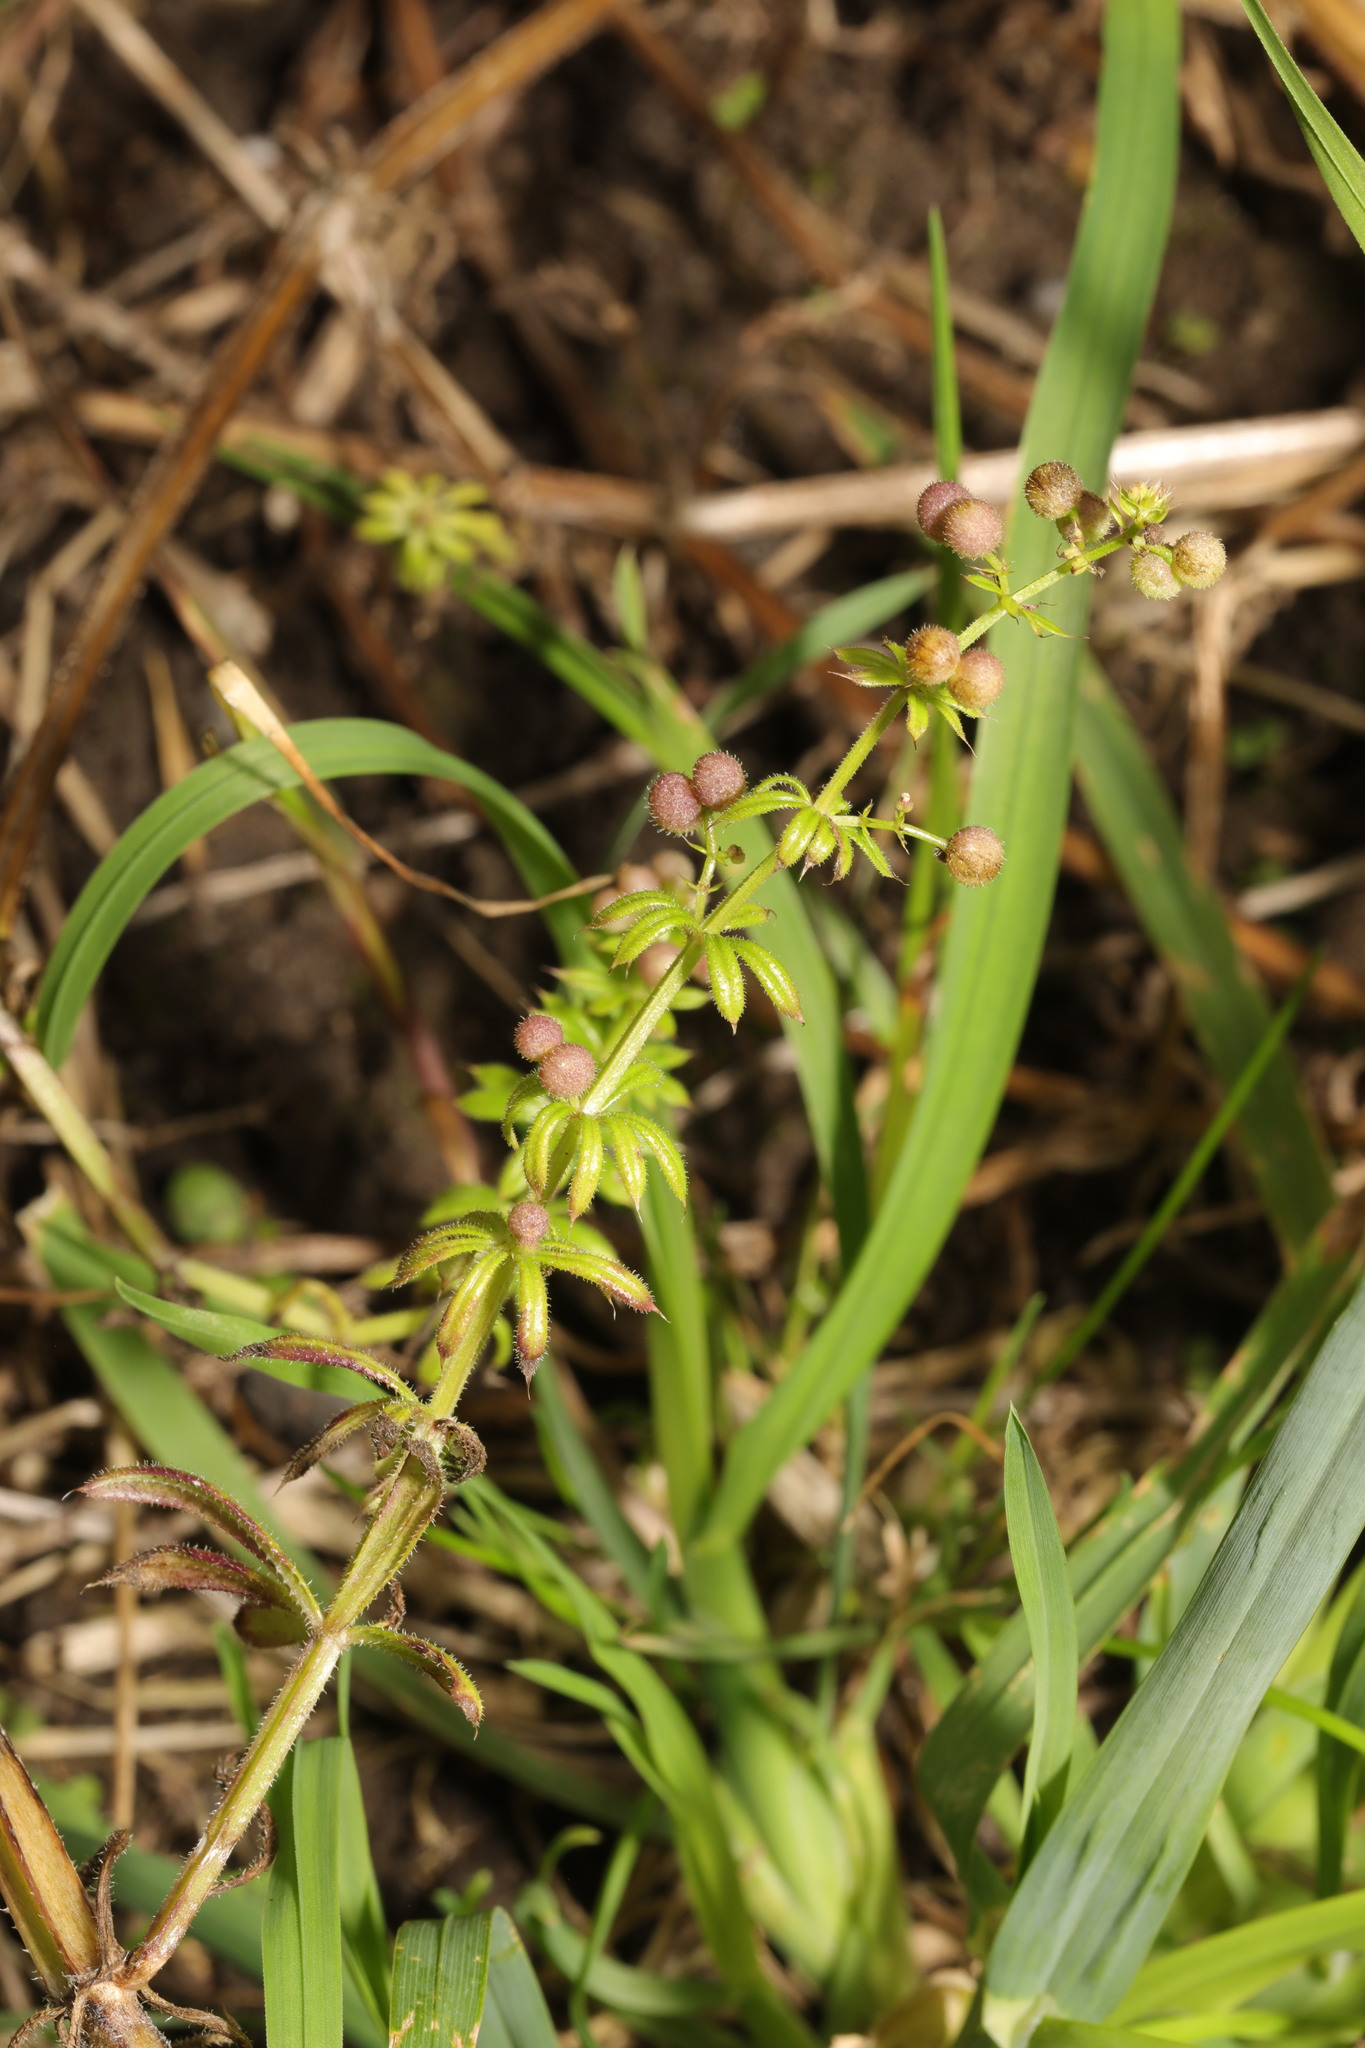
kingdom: Plantae
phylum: Tracheophyta
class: Magnoliopsida
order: Gentianales
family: Rubiaceae
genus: Galium
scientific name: Galium aparine
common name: Cleavers
